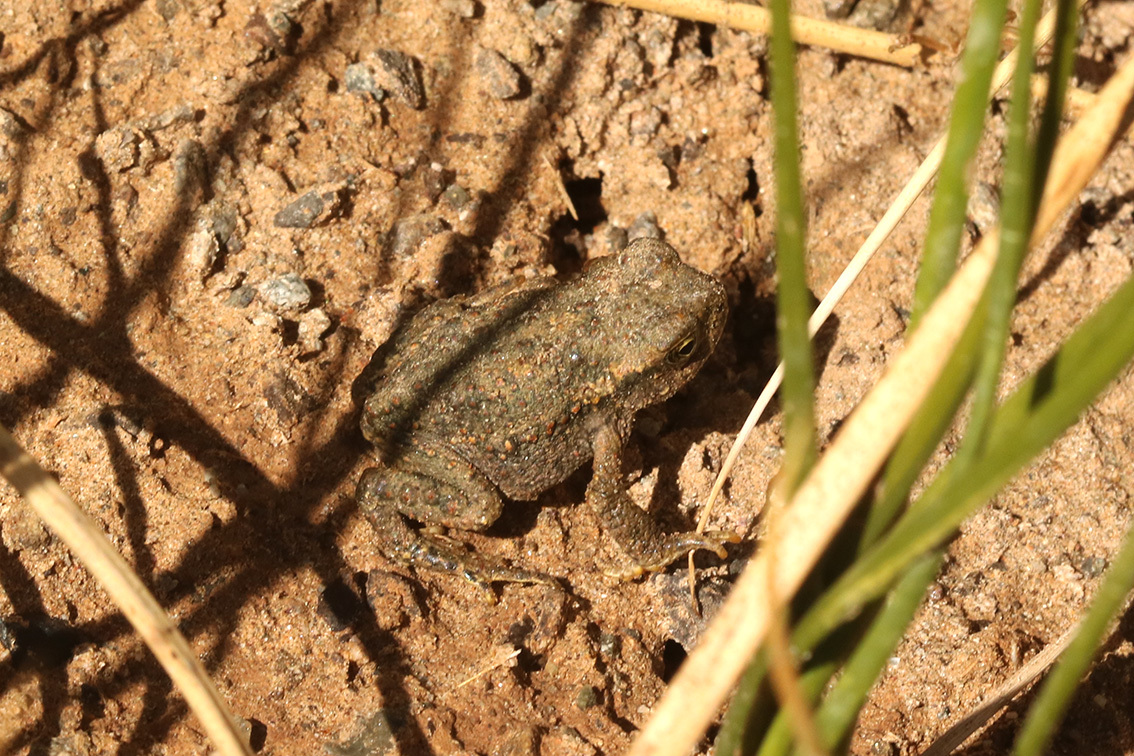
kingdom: Animalia
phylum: Chordata
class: Amphibia
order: Anura
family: Bufonidae
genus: Rhinella
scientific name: Rhinella spinulosa
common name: Warty toad
